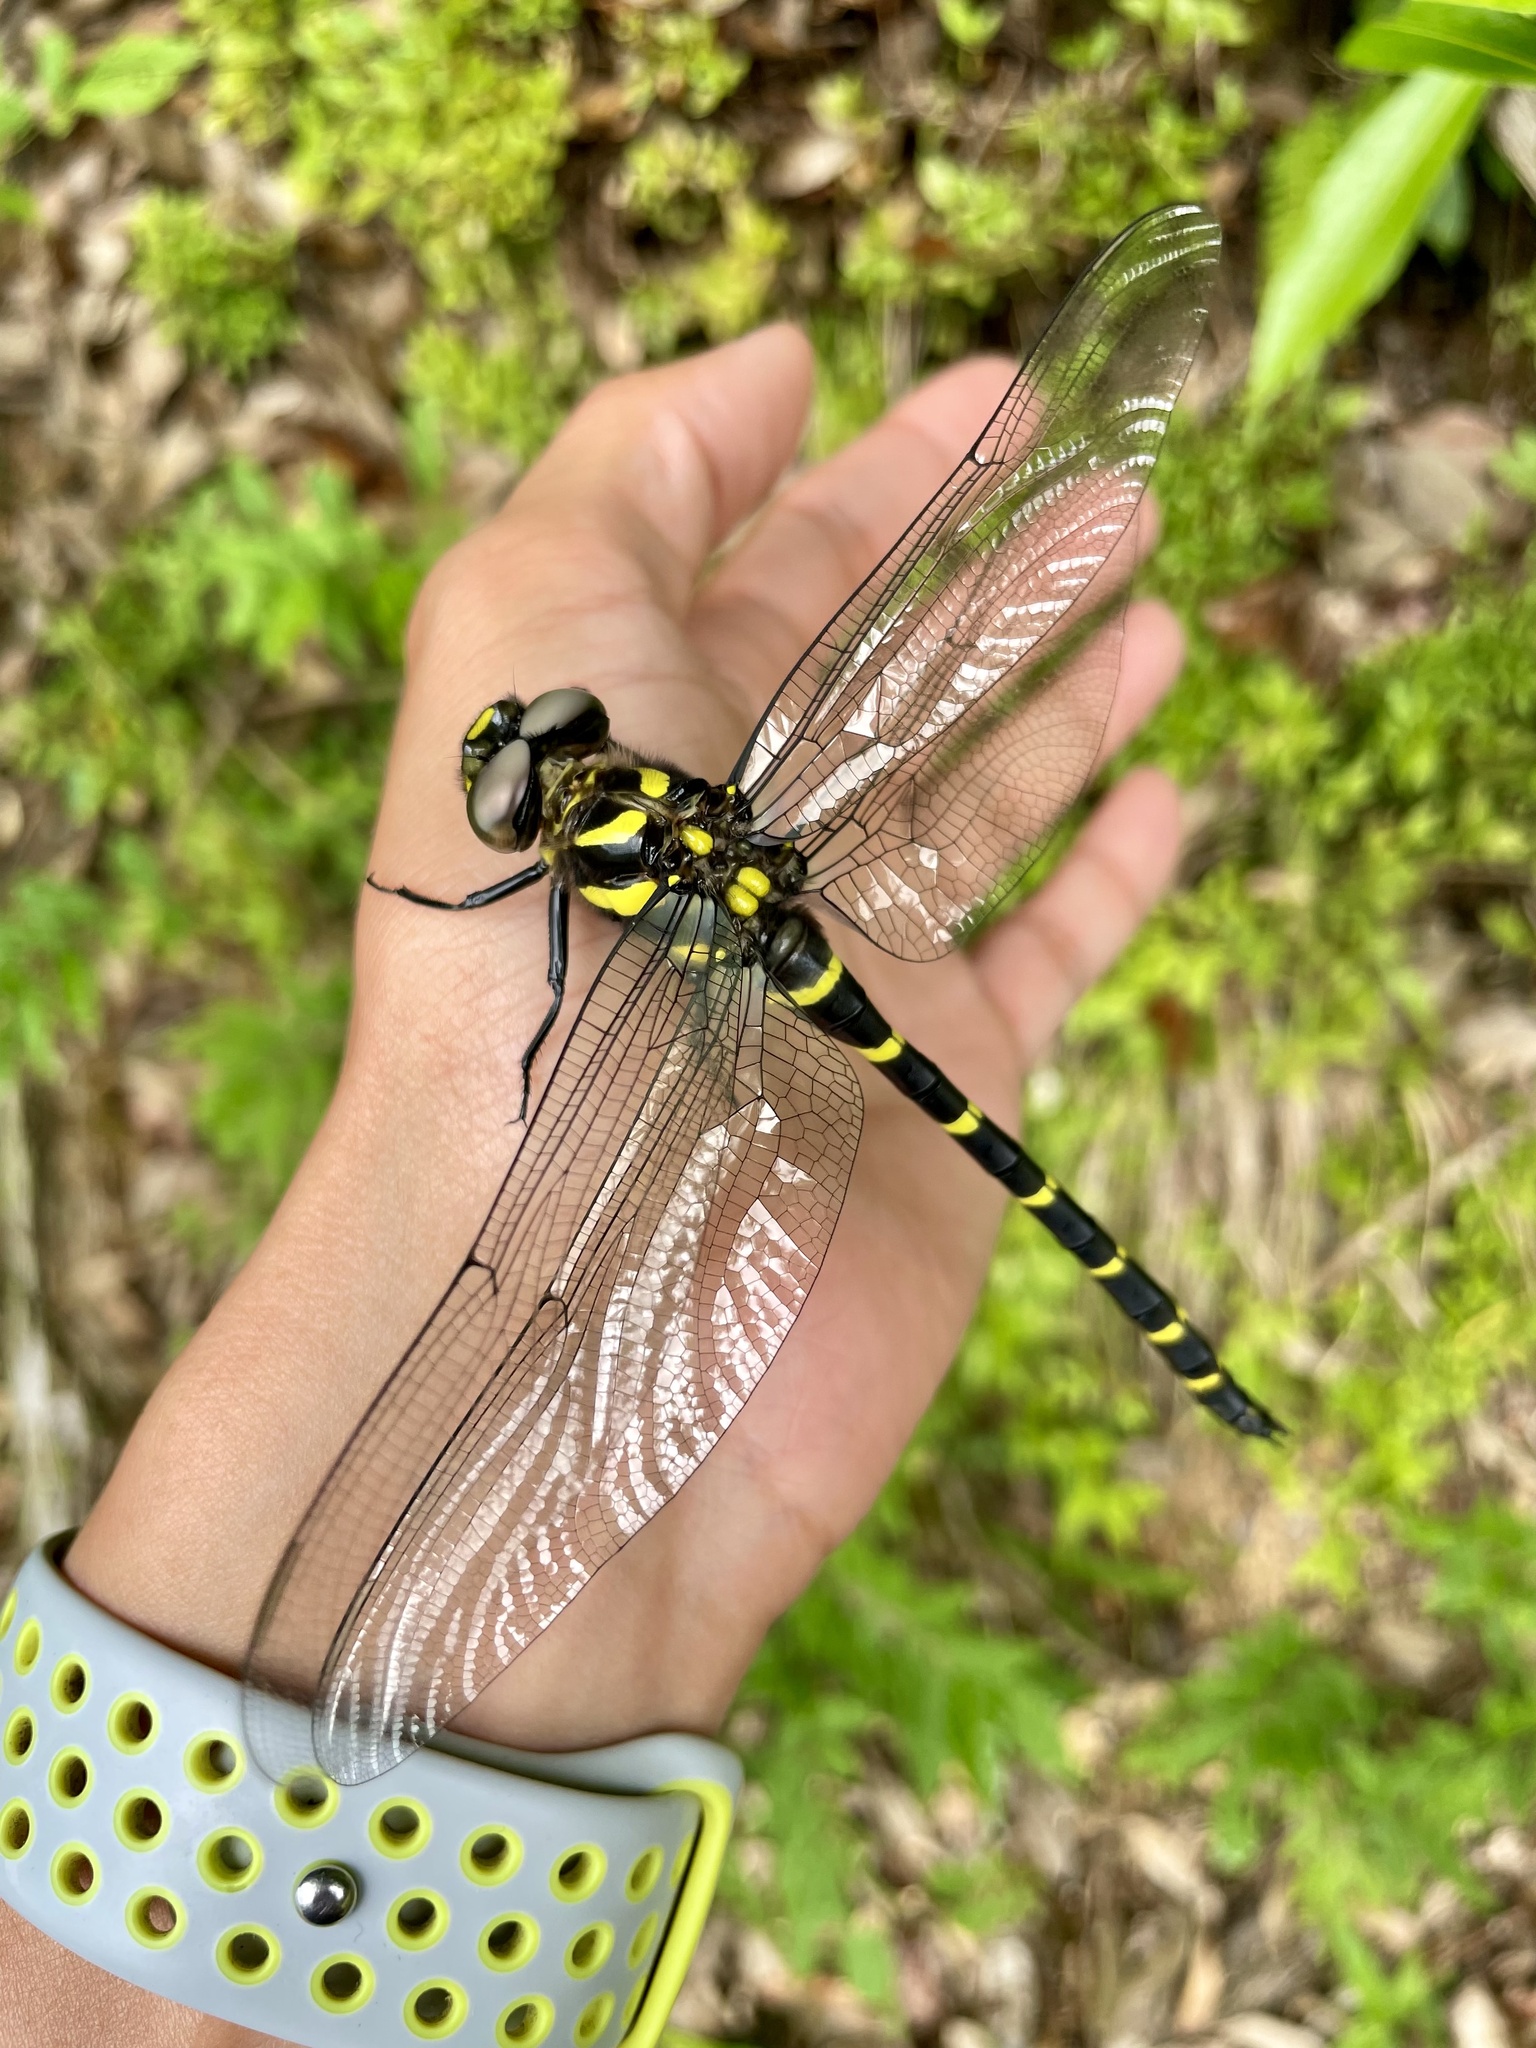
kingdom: Animalia
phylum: Arthropoda
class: Insecta
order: Odonata
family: Cordulegastridae
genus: Anotogaster
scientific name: Anotogaster sieboldii
